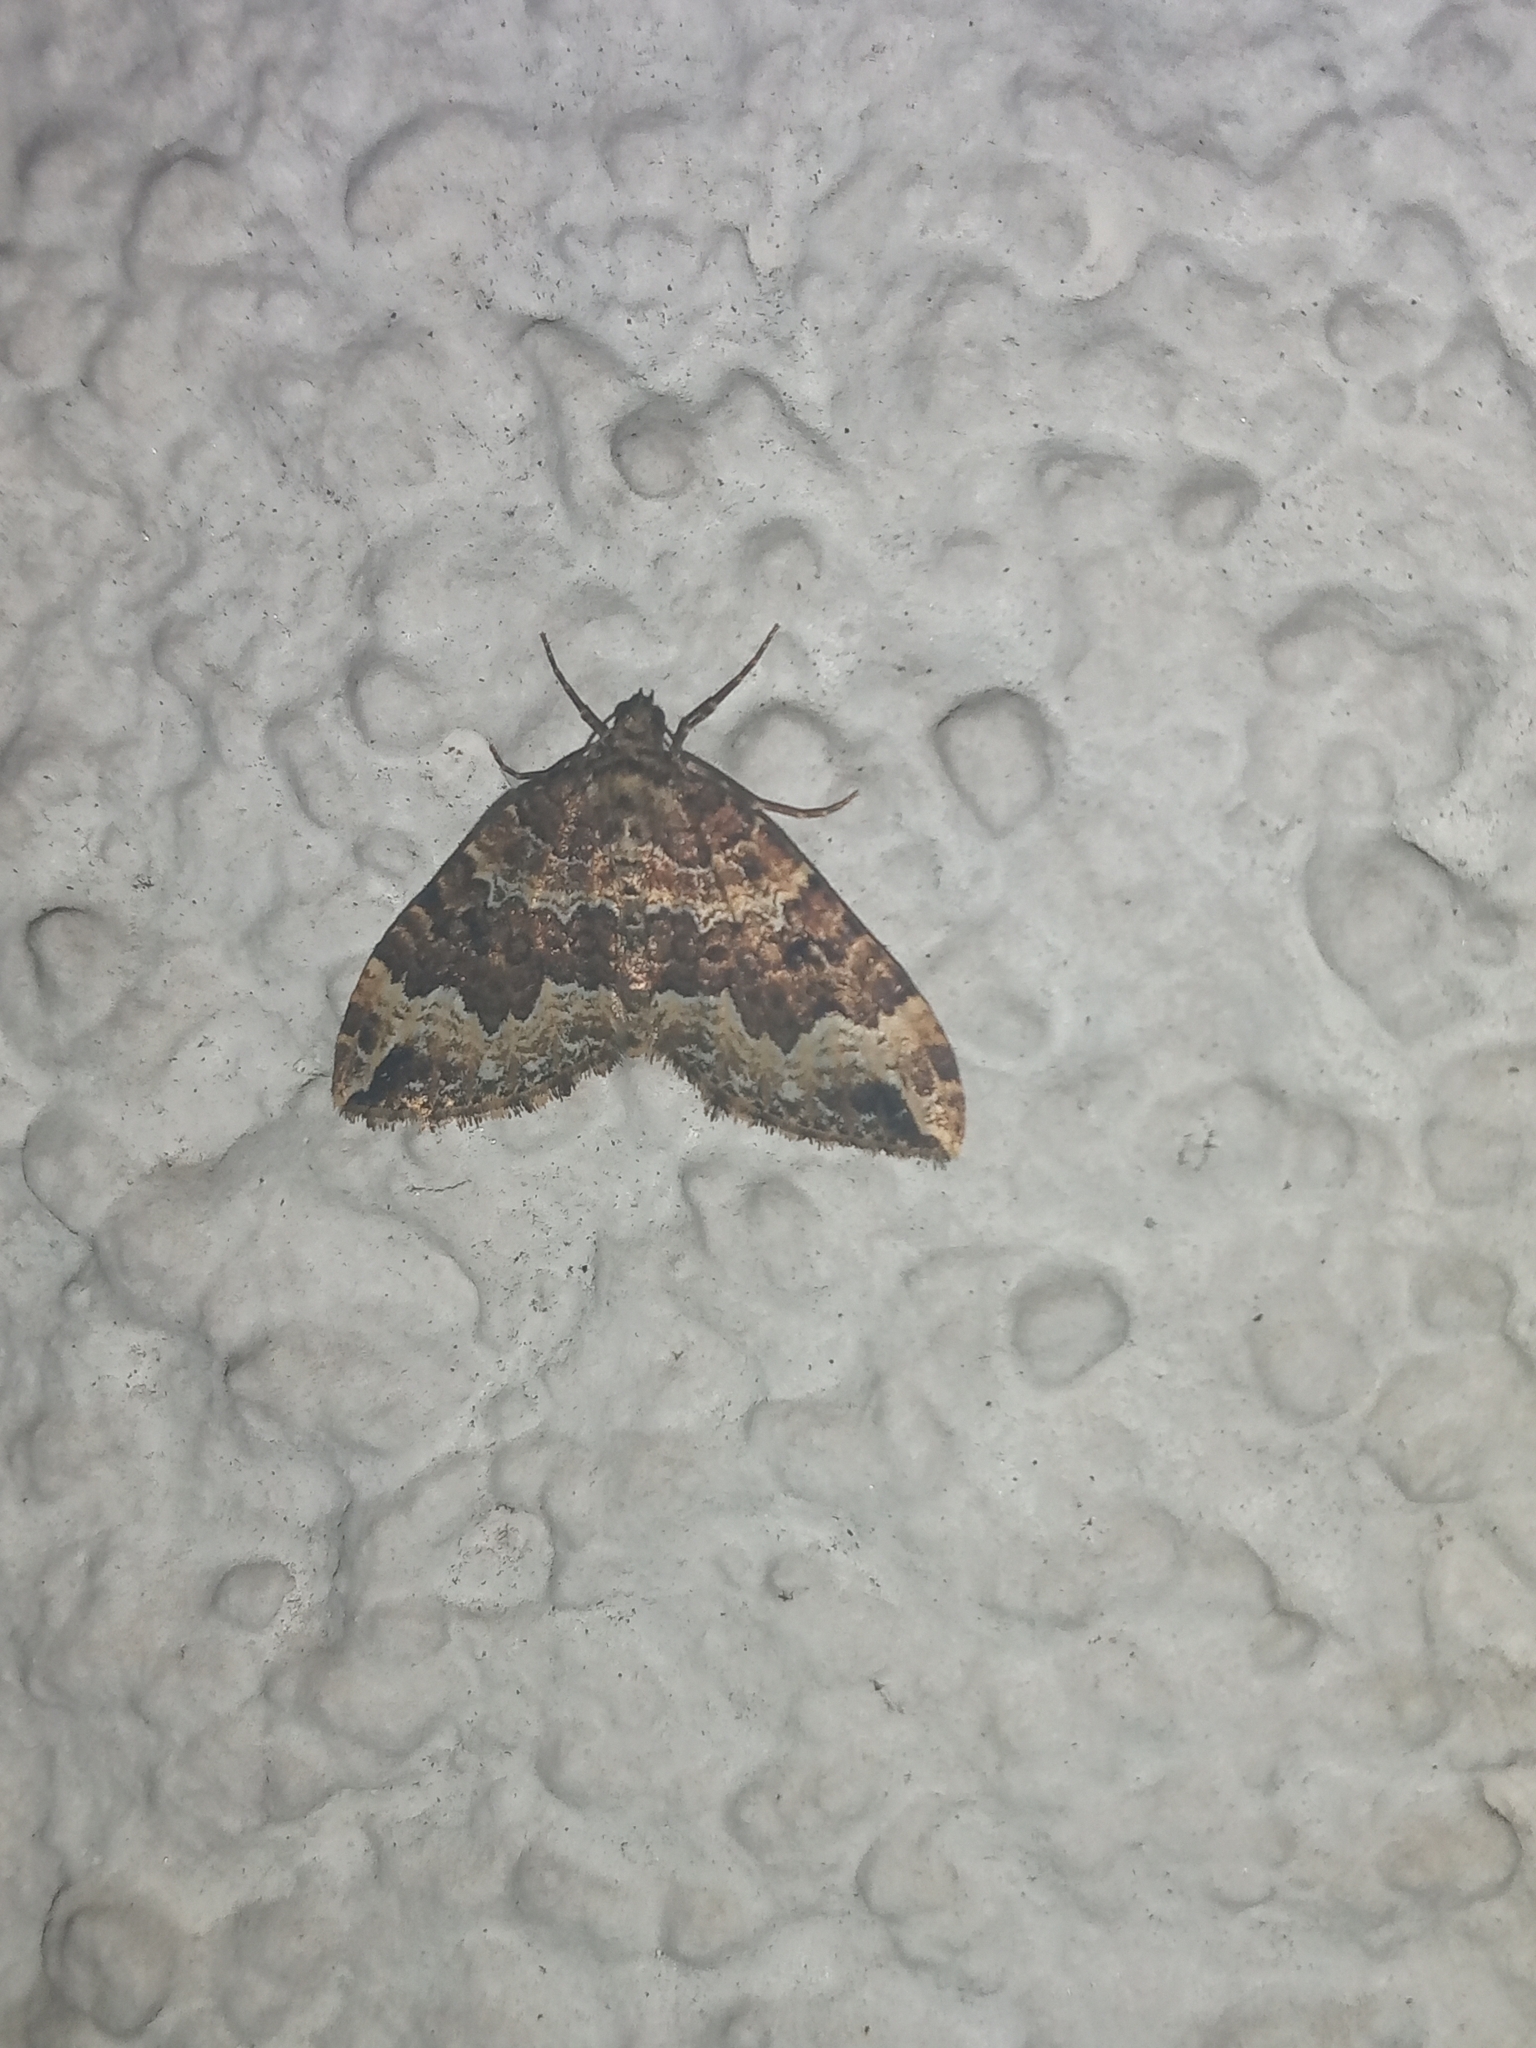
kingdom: Animalia
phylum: Arthropoda
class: Insecta
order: Lepidoptera
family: Geometridae
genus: Lampropteryx
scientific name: Lampropteryx suffumata
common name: Water carpet
